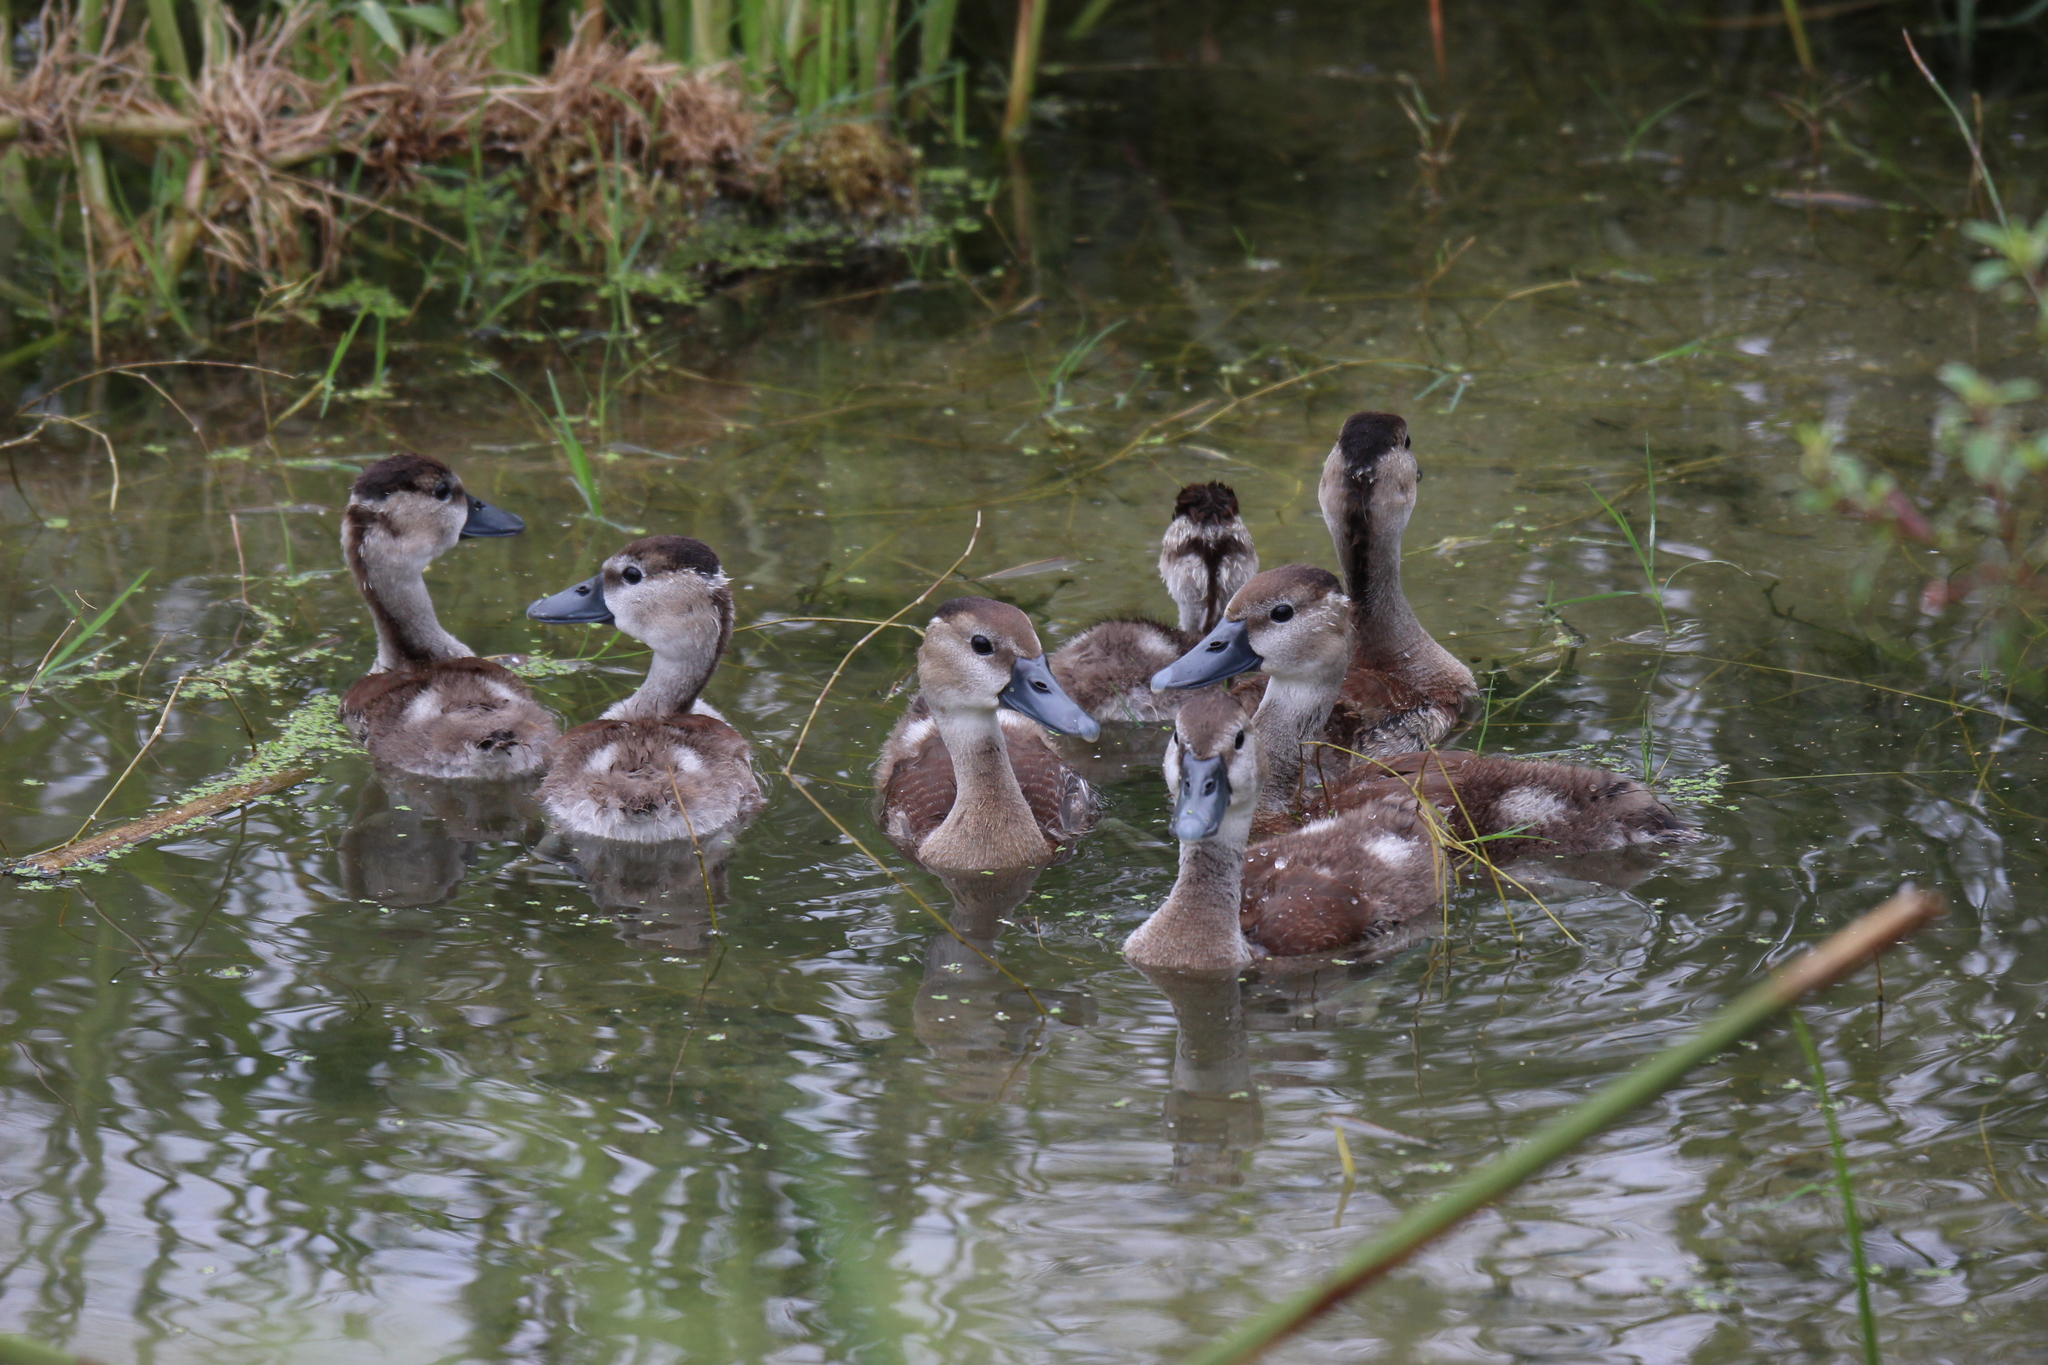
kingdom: Animalia
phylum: Chordata
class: Aves
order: Anseriformes
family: Anatidae
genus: Dendrocygna
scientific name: Dendrocygna autumnalis
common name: Black-bellied whistling duck
